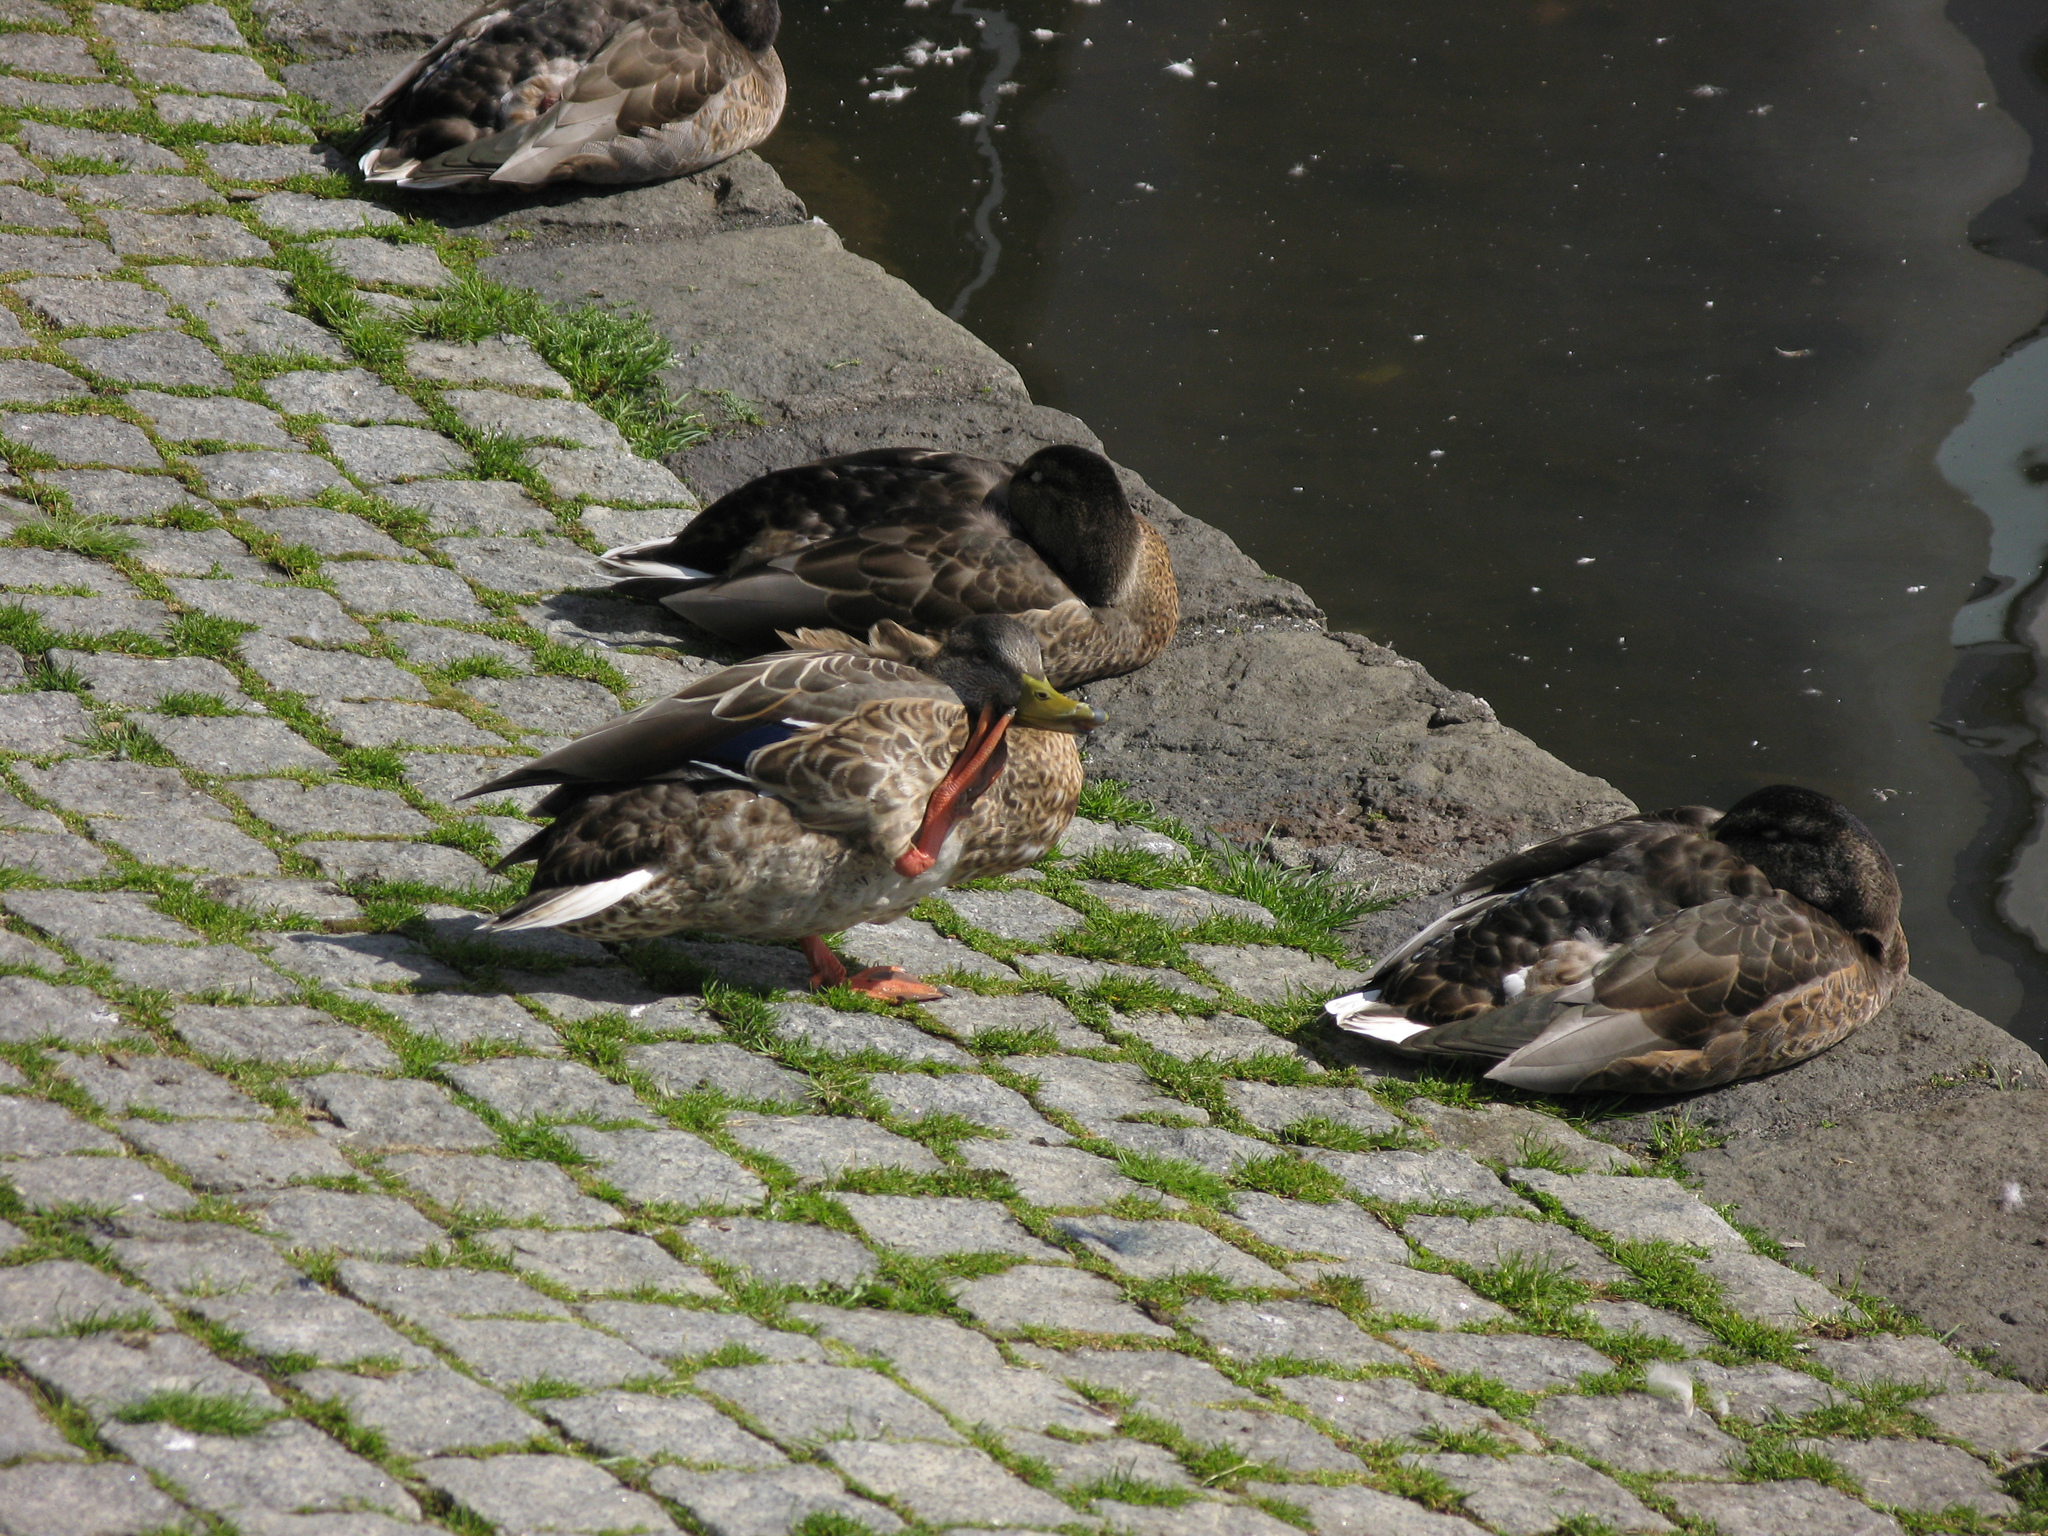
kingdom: Animalia
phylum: Chordata
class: Aves
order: Anseriformes
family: Anatidae
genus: Anas
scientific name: Anas platyrhynchos
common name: Mallard
